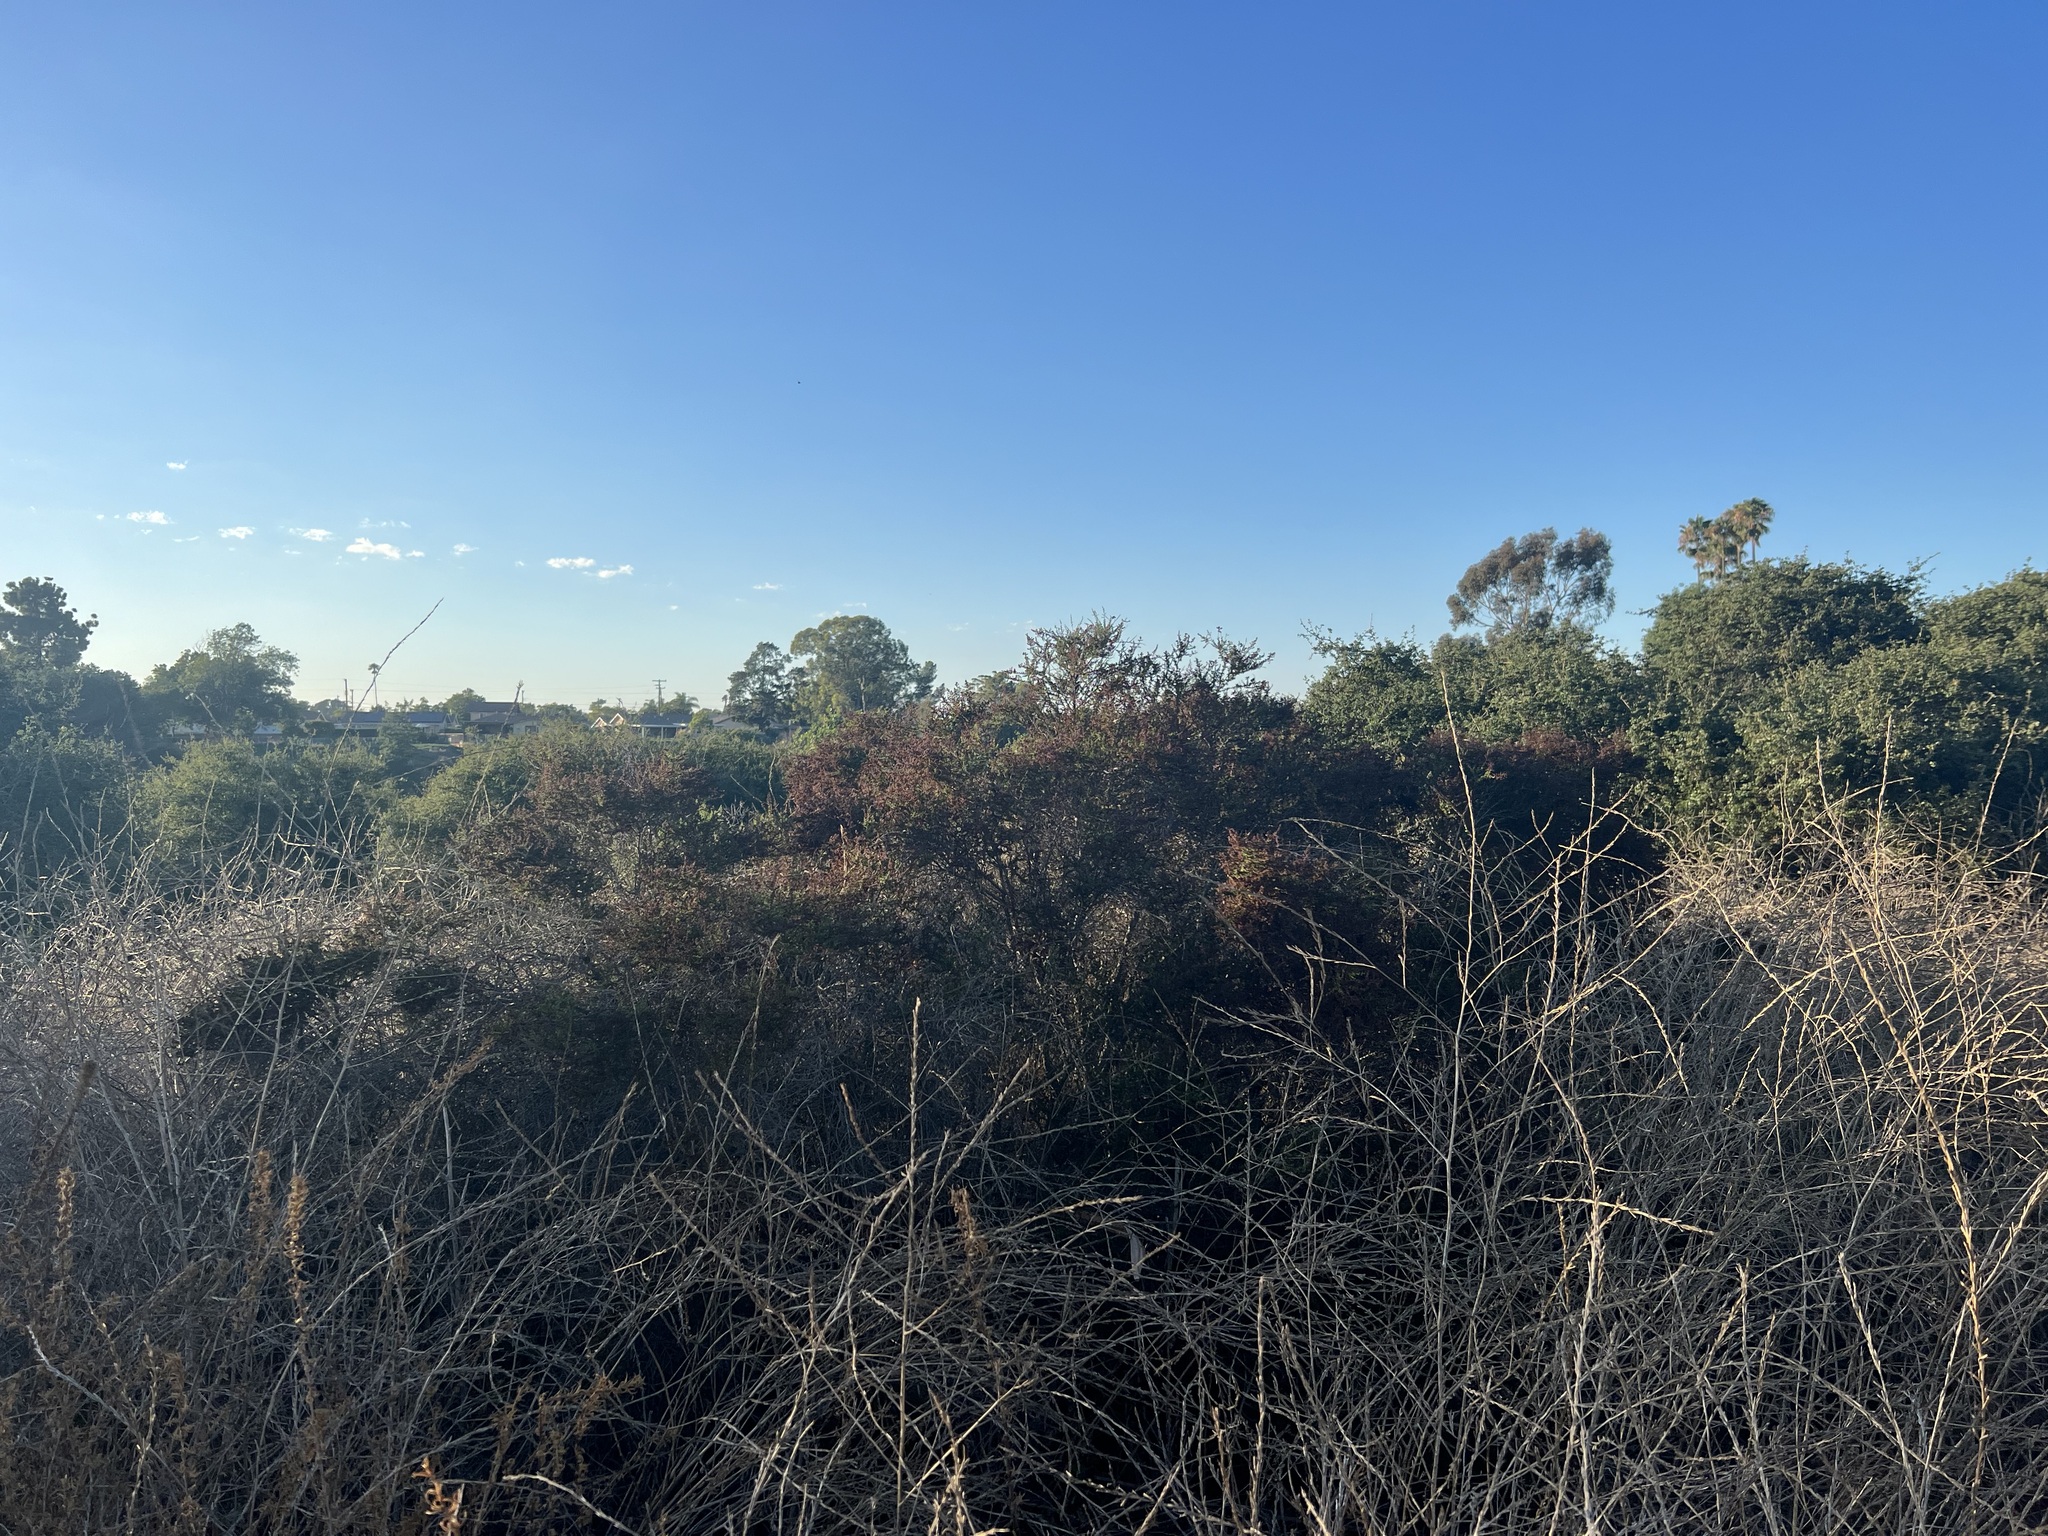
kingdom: Plantae
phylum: Tracheophyta
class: Magnoliopsida
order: Rosales
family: Rosaceae
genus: Adenostoma
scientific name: Adenostoma fasciculatum
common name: Chamise
